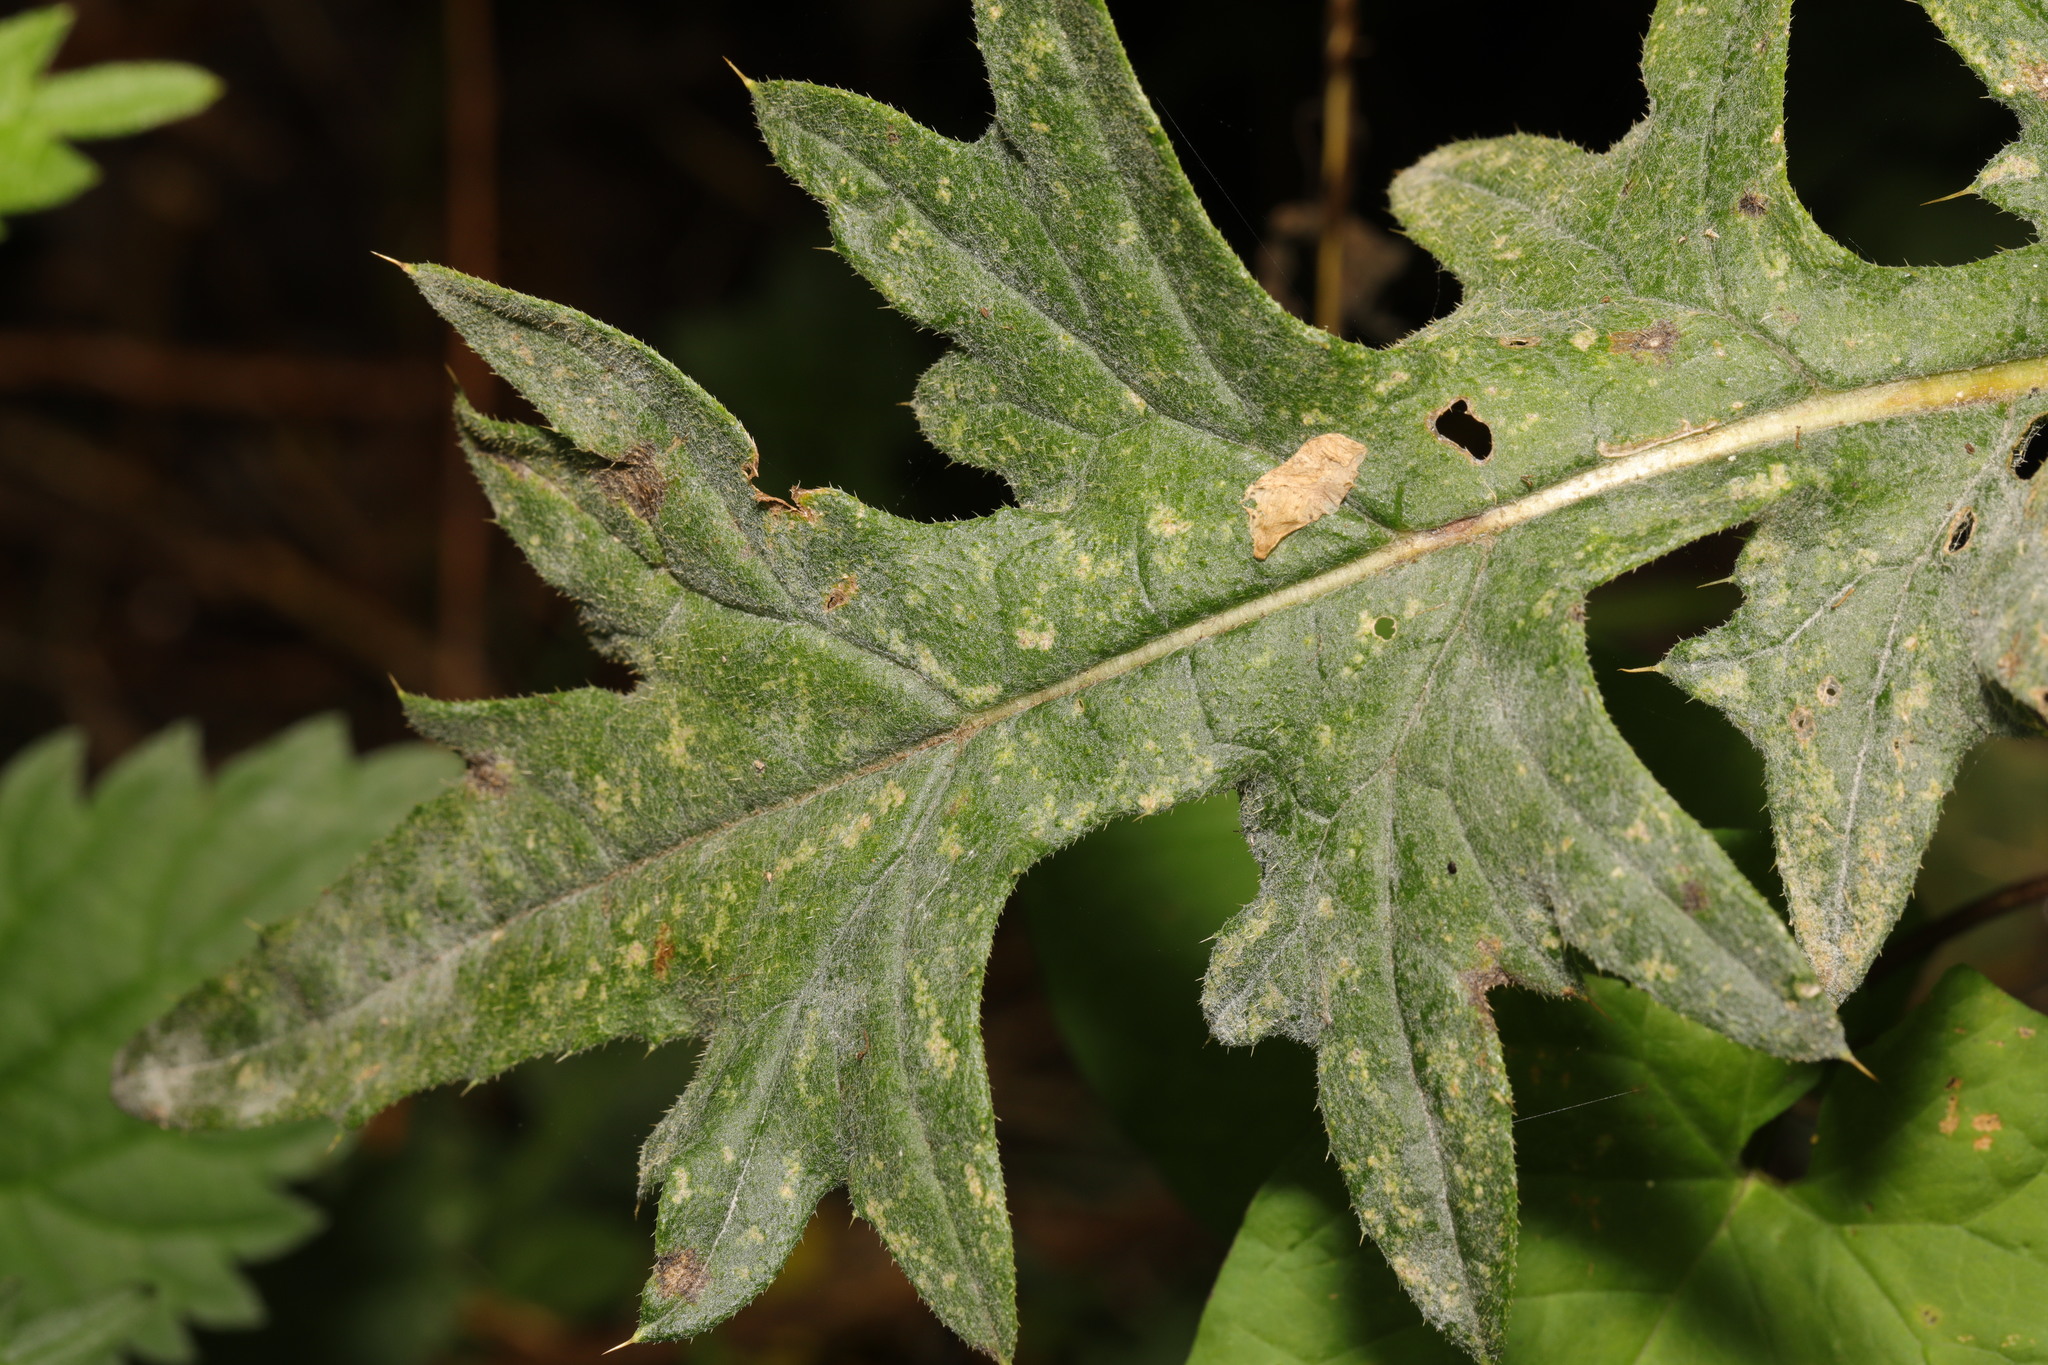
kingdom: Plantae
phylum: Tracheophyta
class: Magnoliopsida
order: Asterales
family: Asteraceae
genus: Cirsium
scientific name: Cirsium vulgare
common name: Bull thistle
